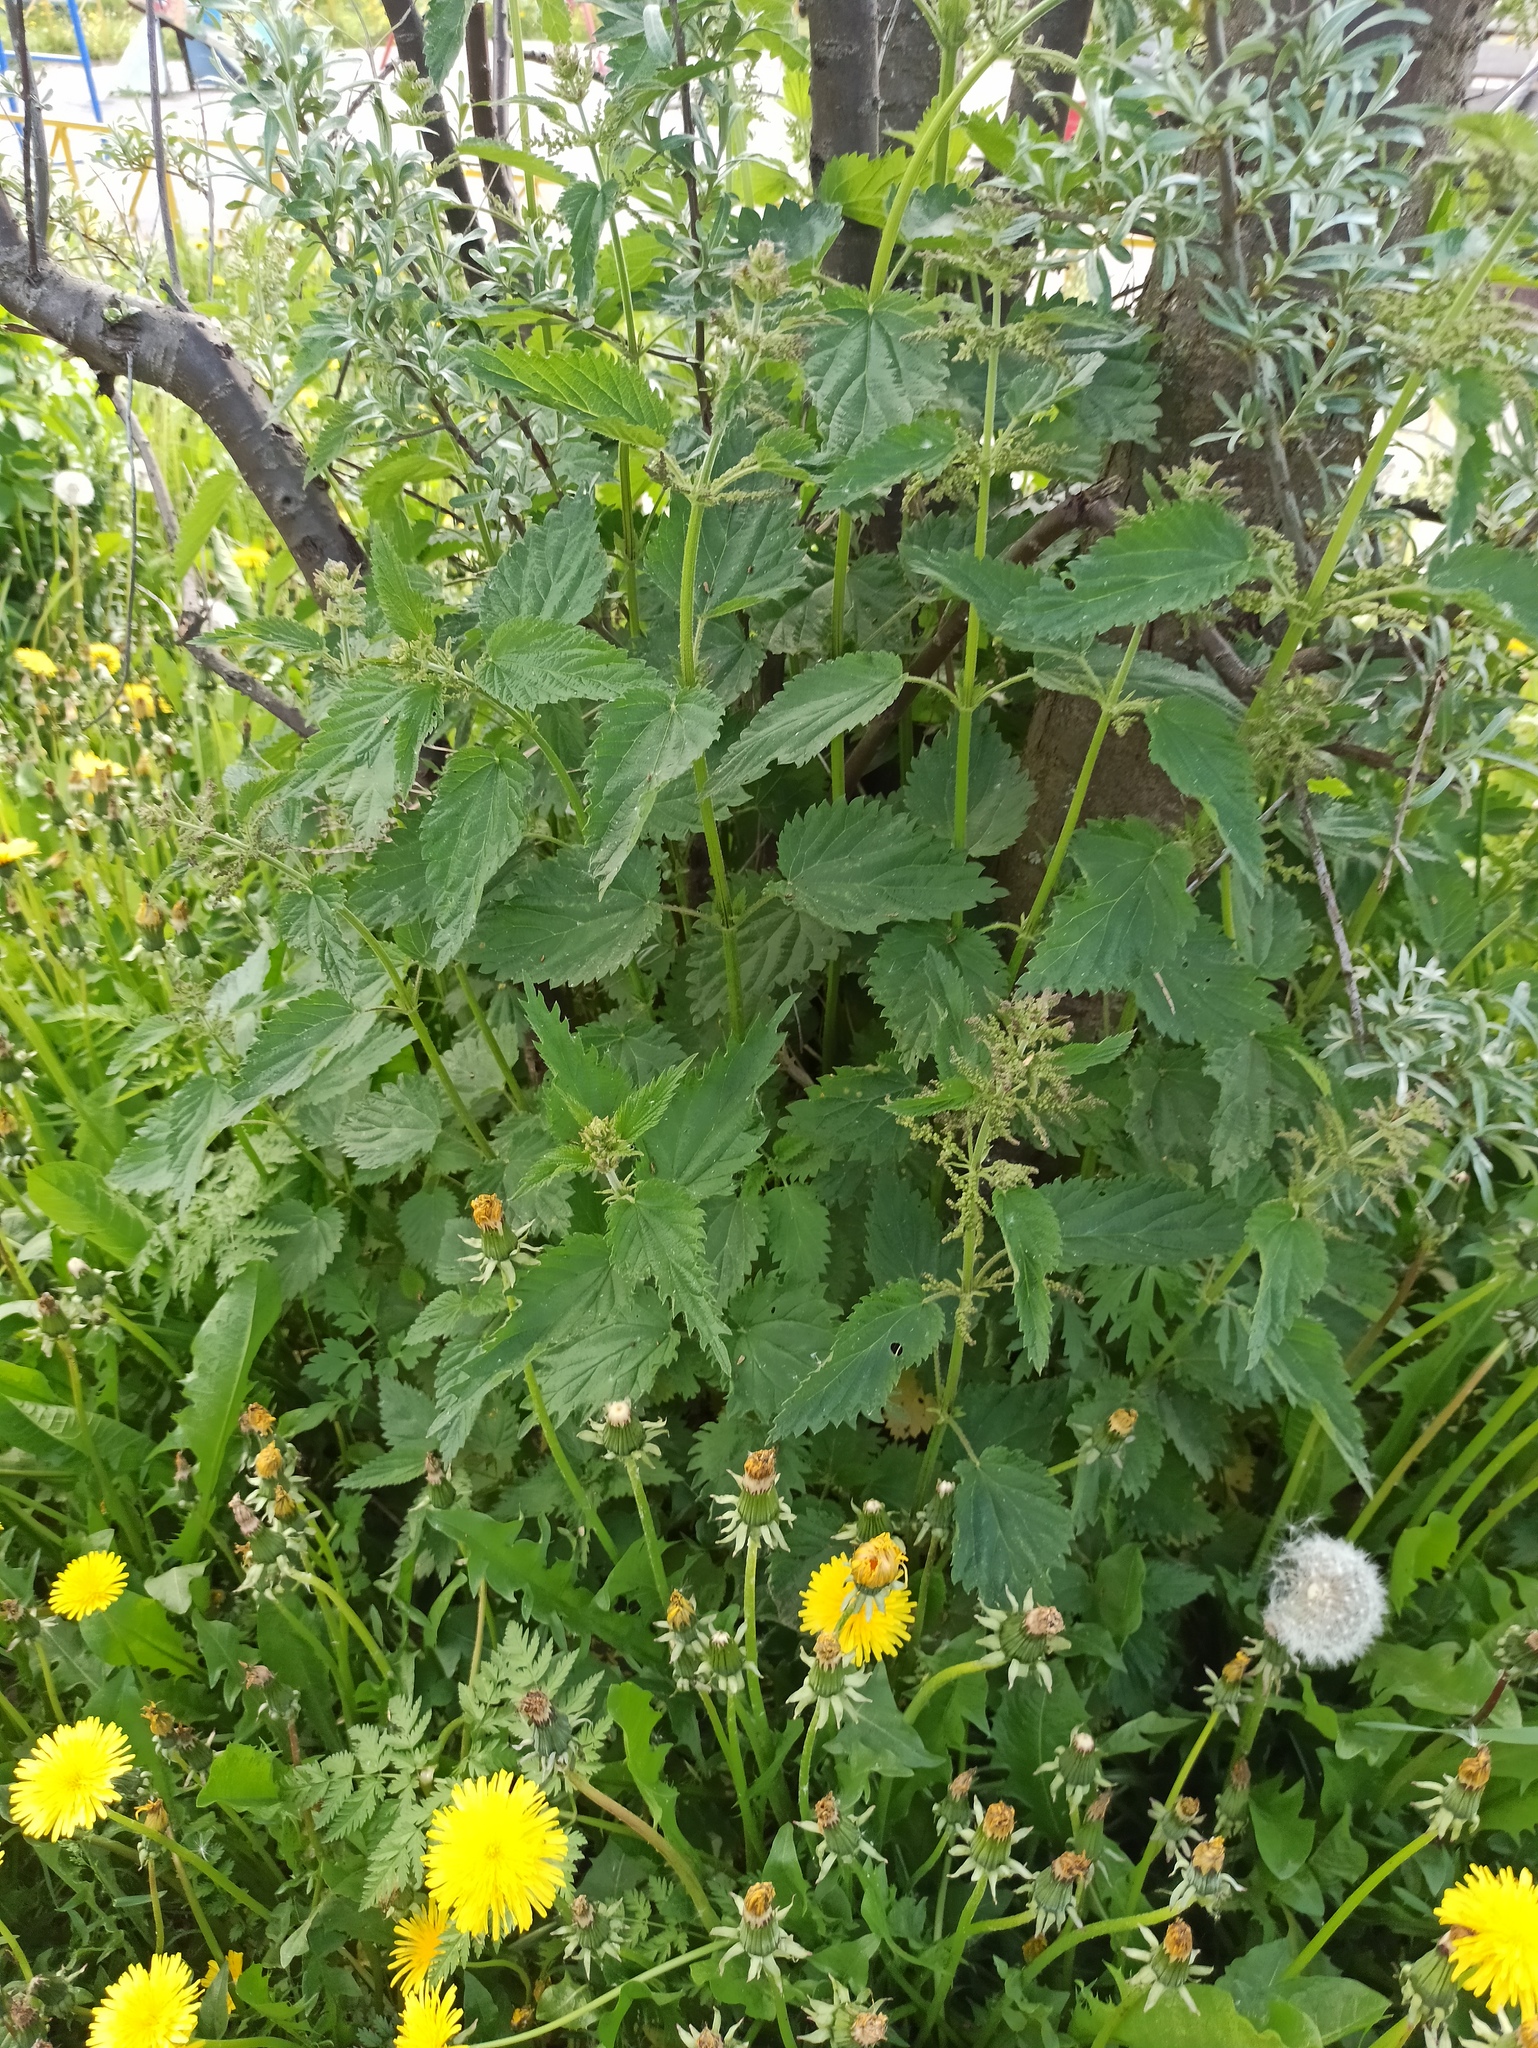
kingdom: Plantae
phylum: Tracheophyta
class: Magnoliopsida
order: Rosales
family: Urticaceae
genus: Urtica
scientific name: Urtica dioica
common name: Common nettle
